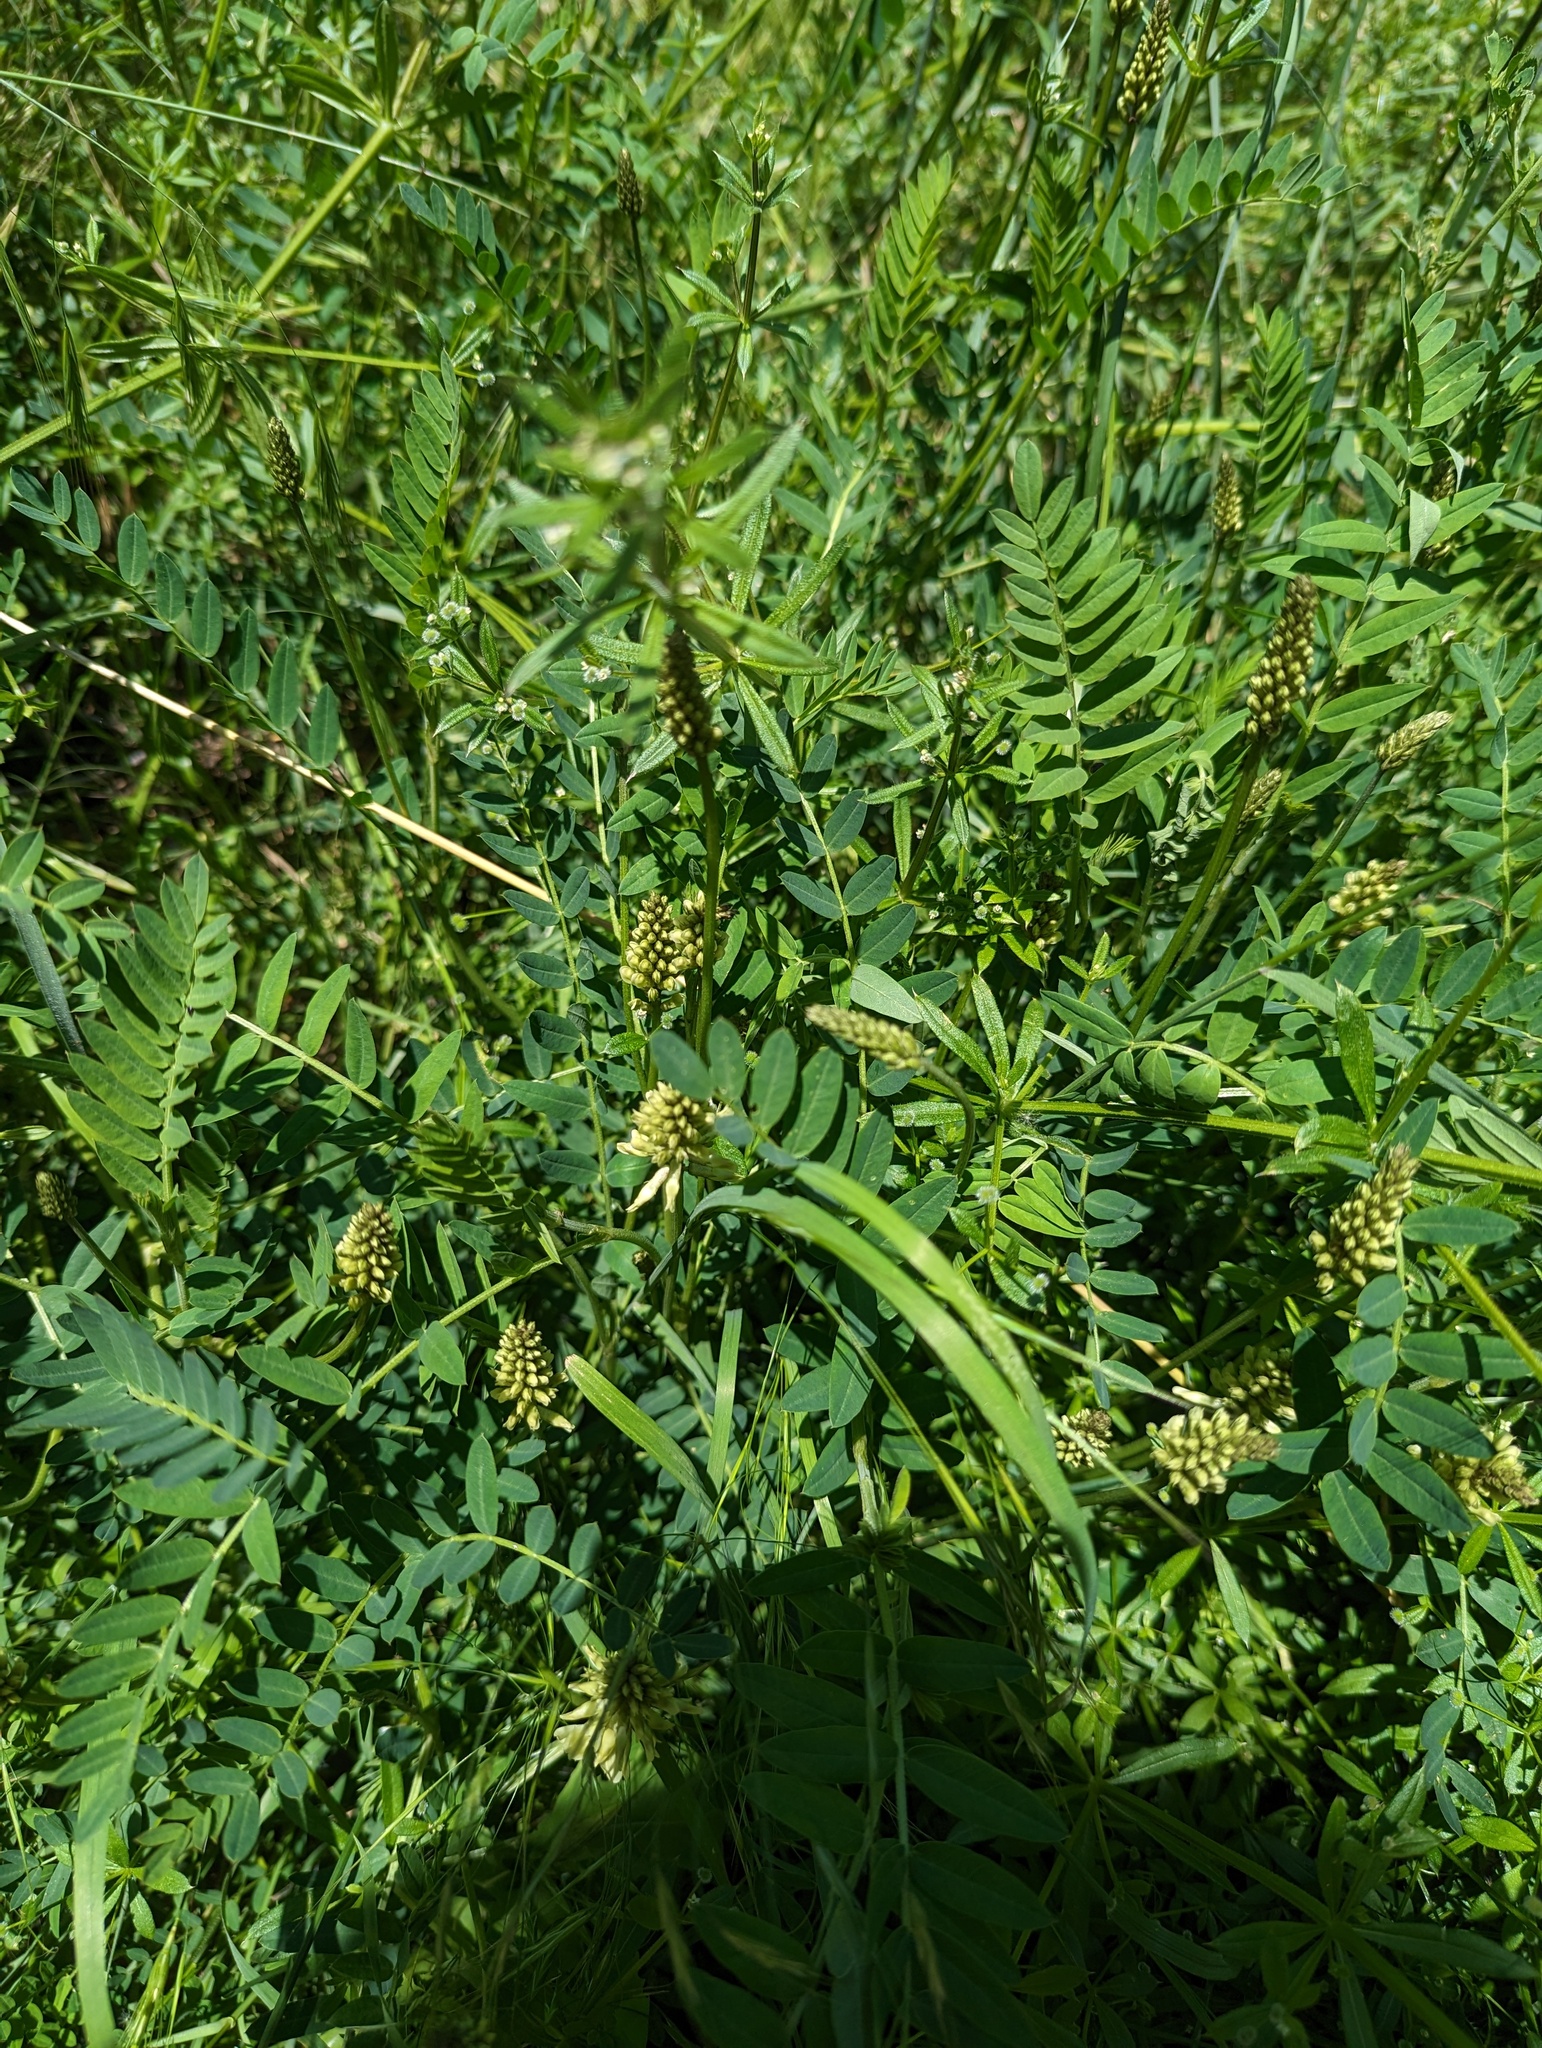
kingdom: Plantae
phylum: Tracheophyta
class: Magnoliopsida
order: Fabales
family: Fabaceae
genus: Astragalus
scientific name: Astragalus cicer
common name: Chick-pea milk-vetch
